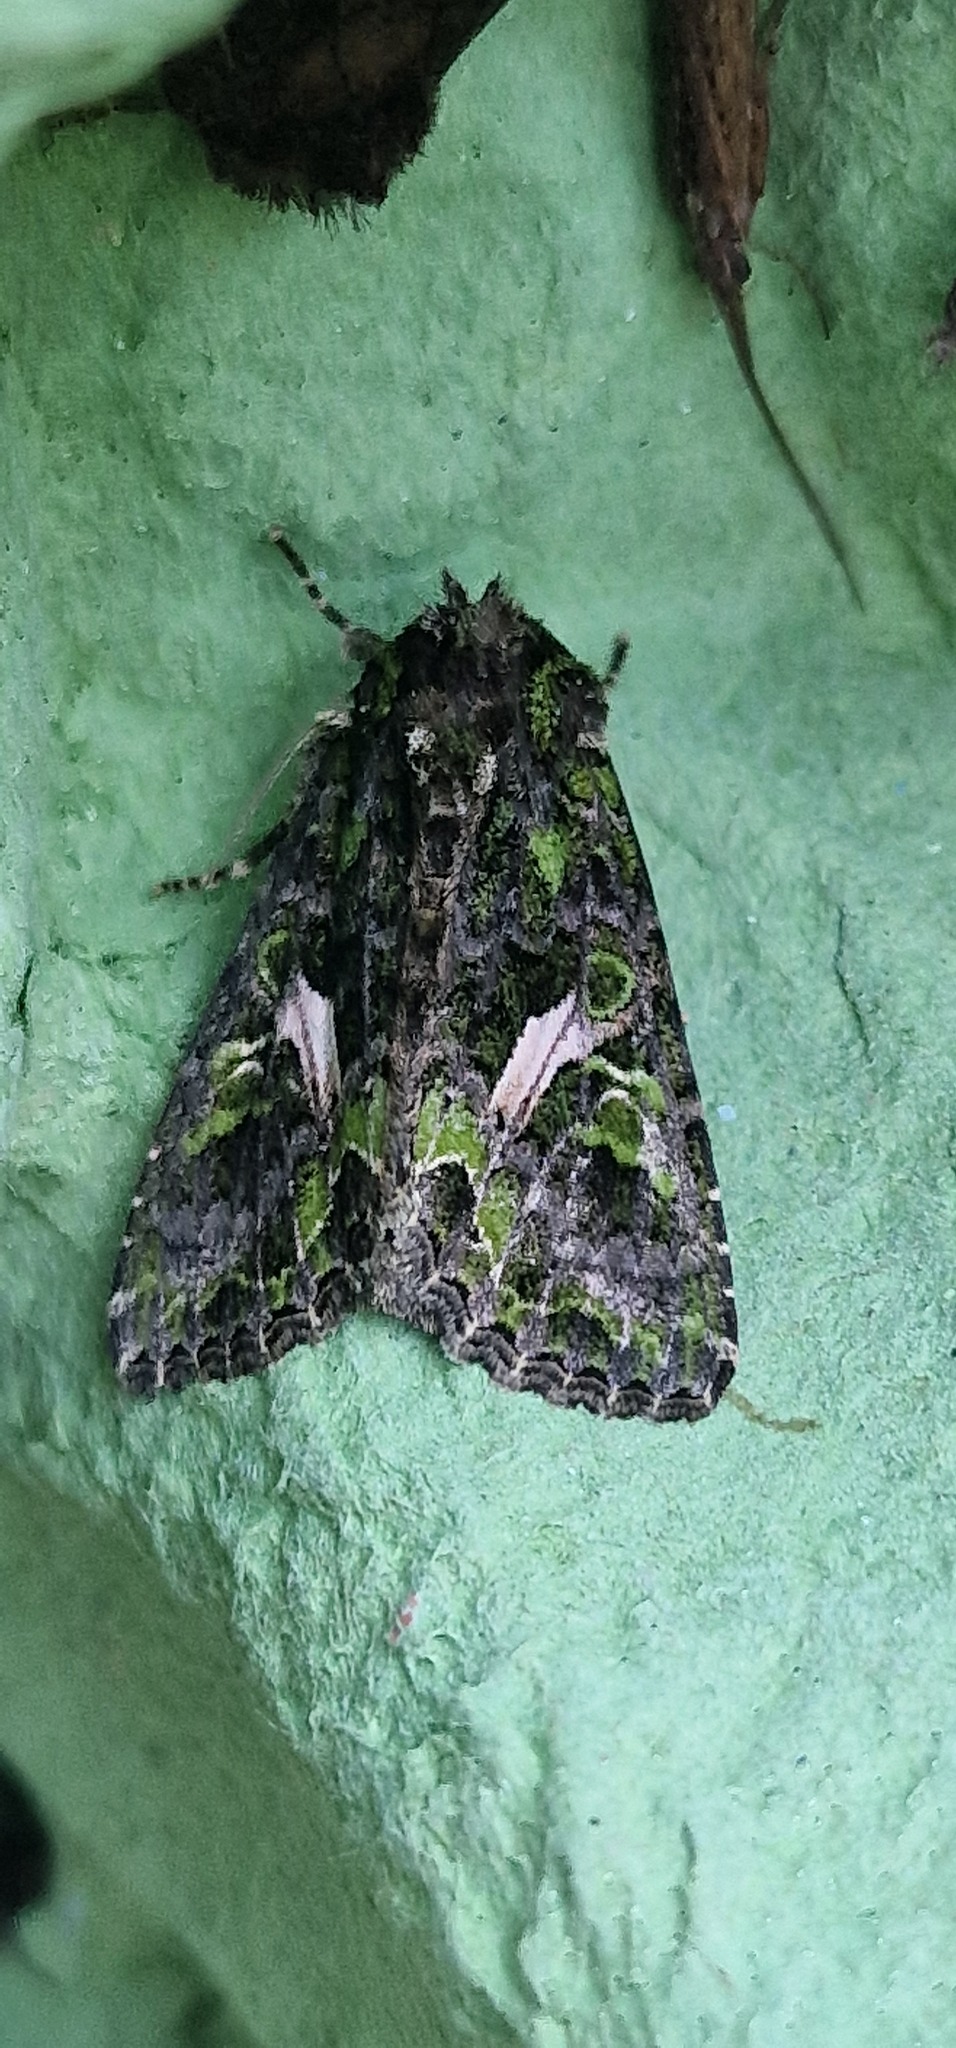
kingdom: Animalia
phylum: Arthropoda
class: Insecta
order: Lepidoptera
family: Noctuidae
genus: Trachea
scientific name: Trachea atriplicis
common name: Orache moth
